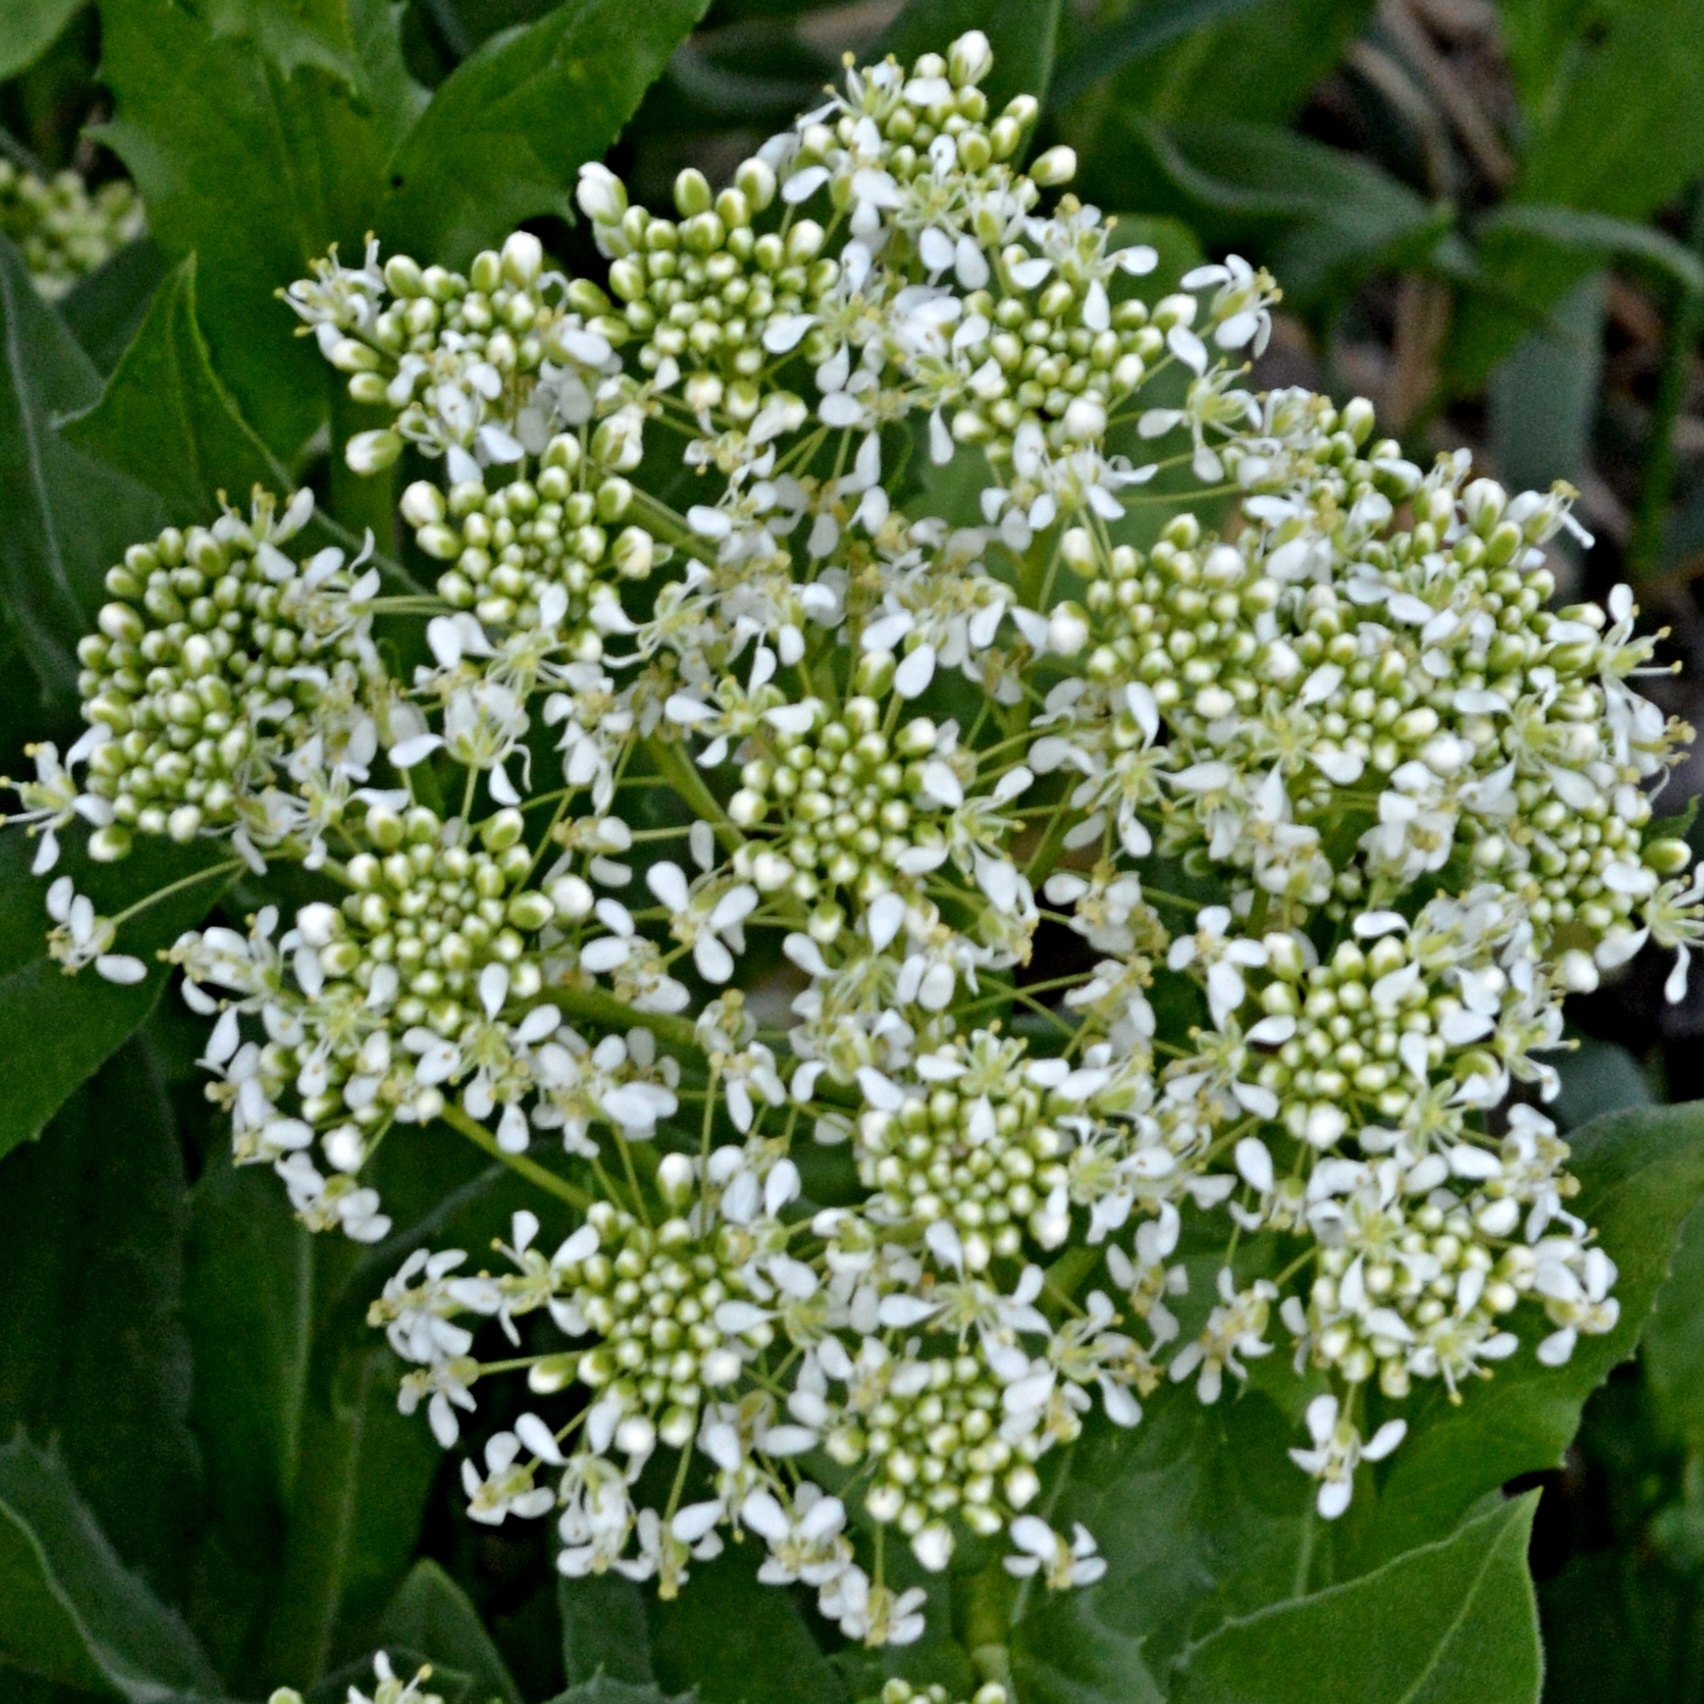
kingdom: Plantae
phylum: Tracheophyta
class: Magnoliopsida
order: Brassicales
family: Brassicaceae
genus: Lepidium
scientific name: Lepidium draba
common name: Hoary cress
